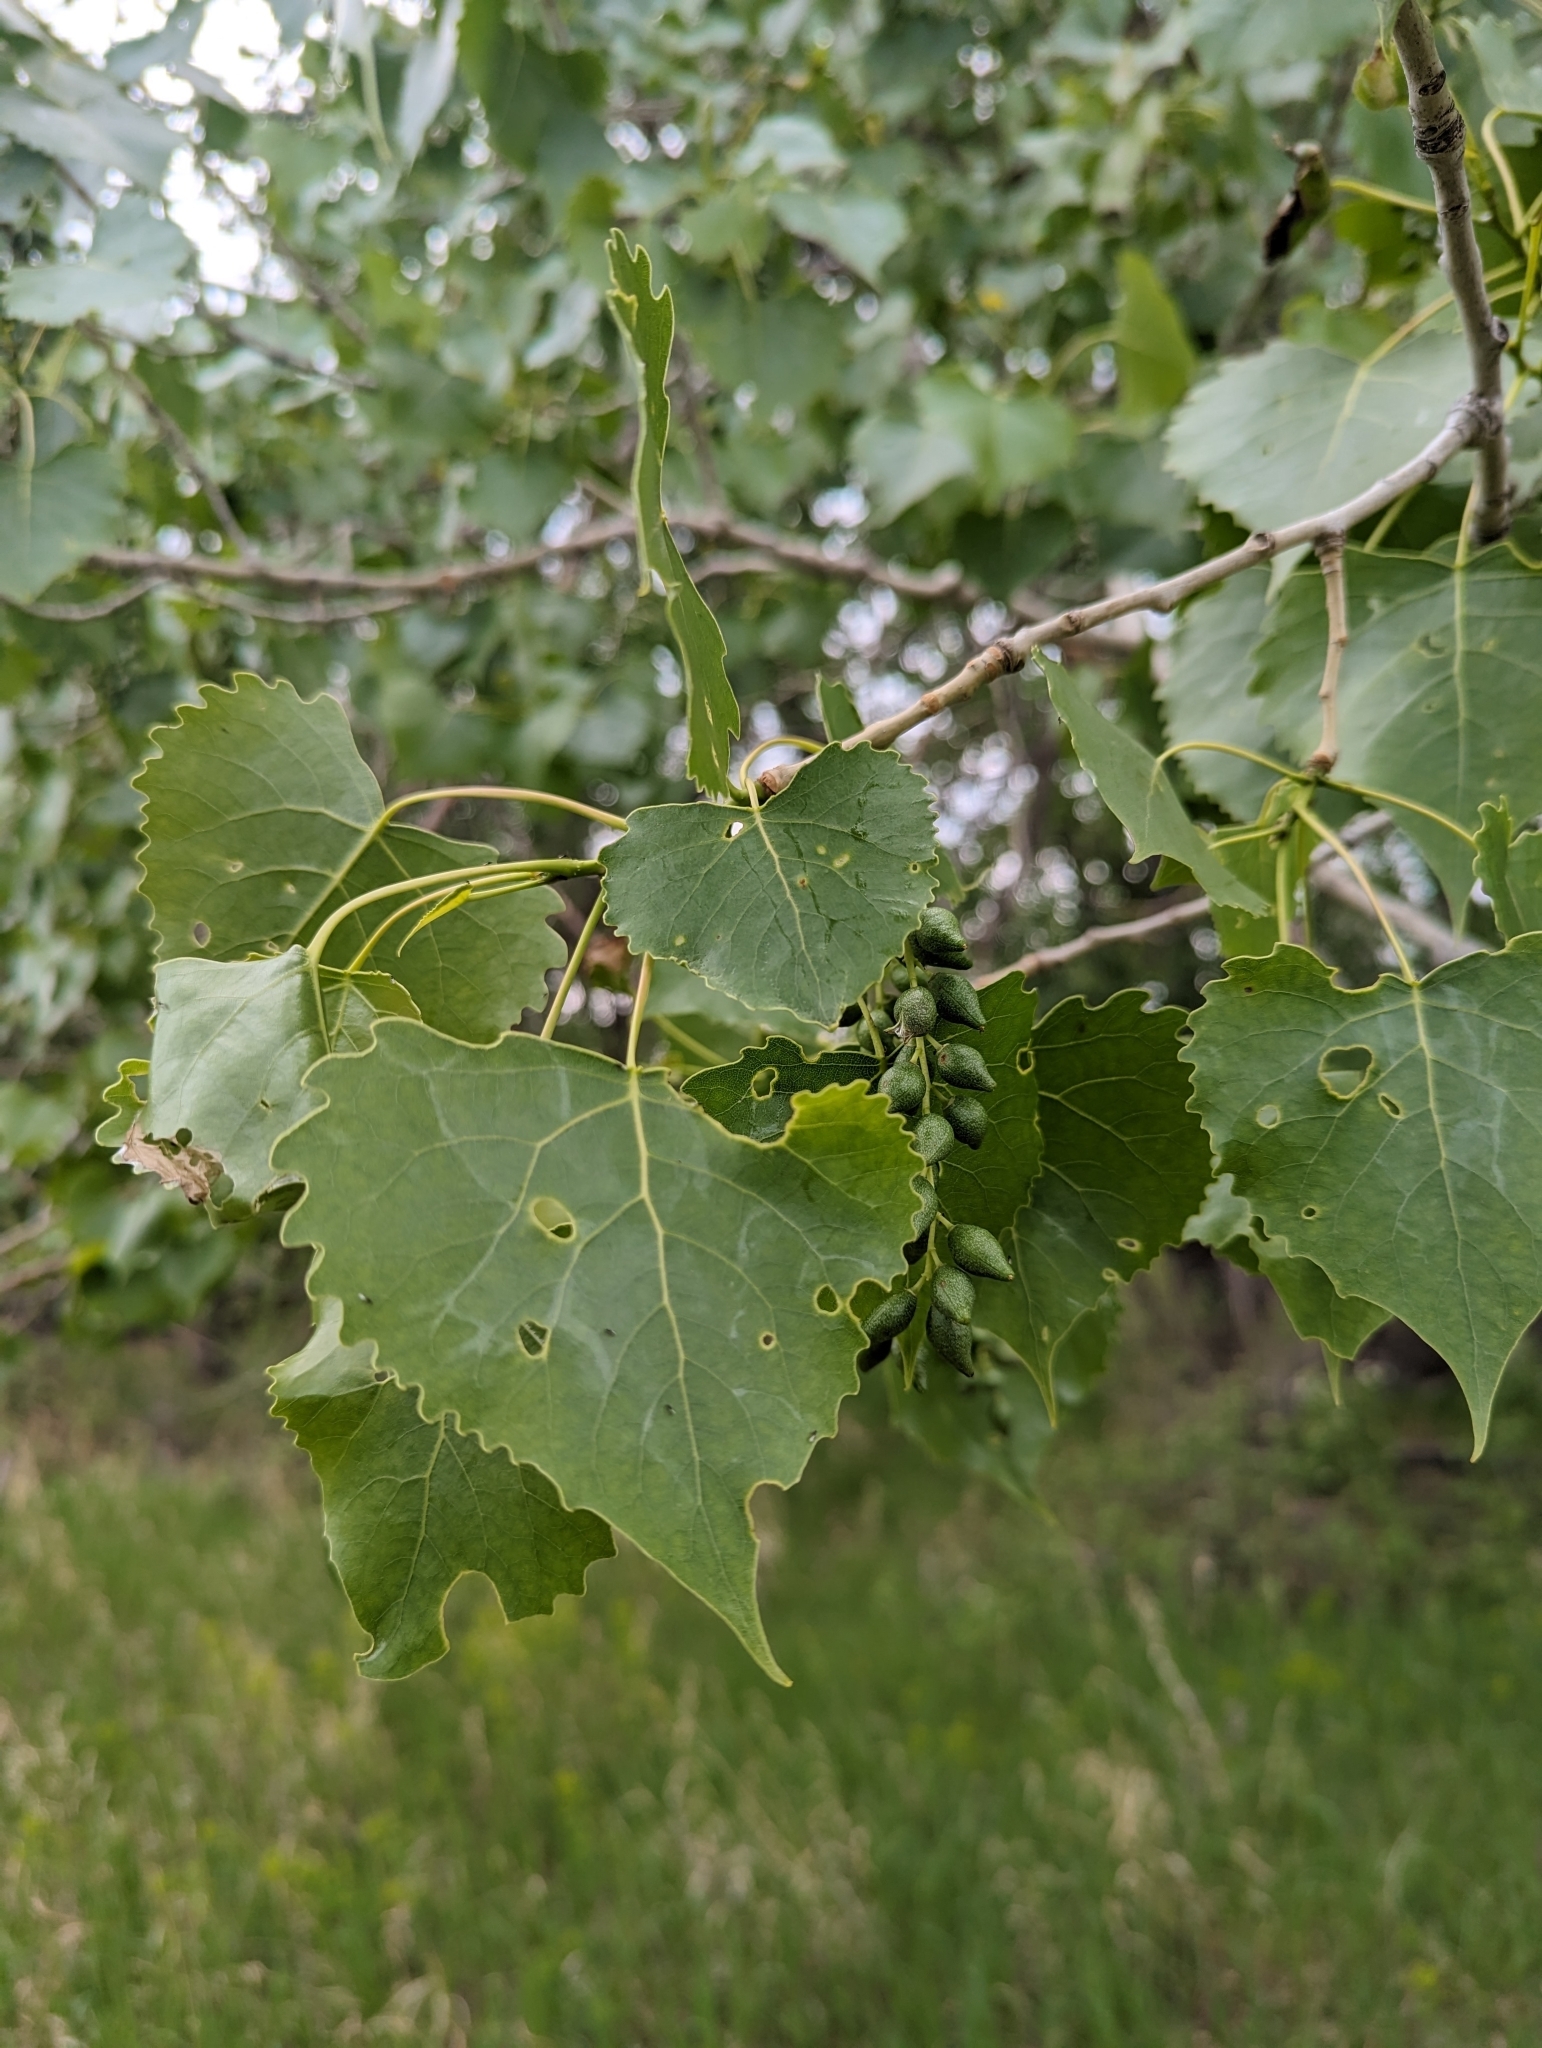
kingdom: Plantae
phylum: Tracheophyta
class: Magnoliopsida
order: Malpighiales
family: Salicaceae
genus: Populus
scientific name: Populus deltoides
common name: Eastern cottonwood
